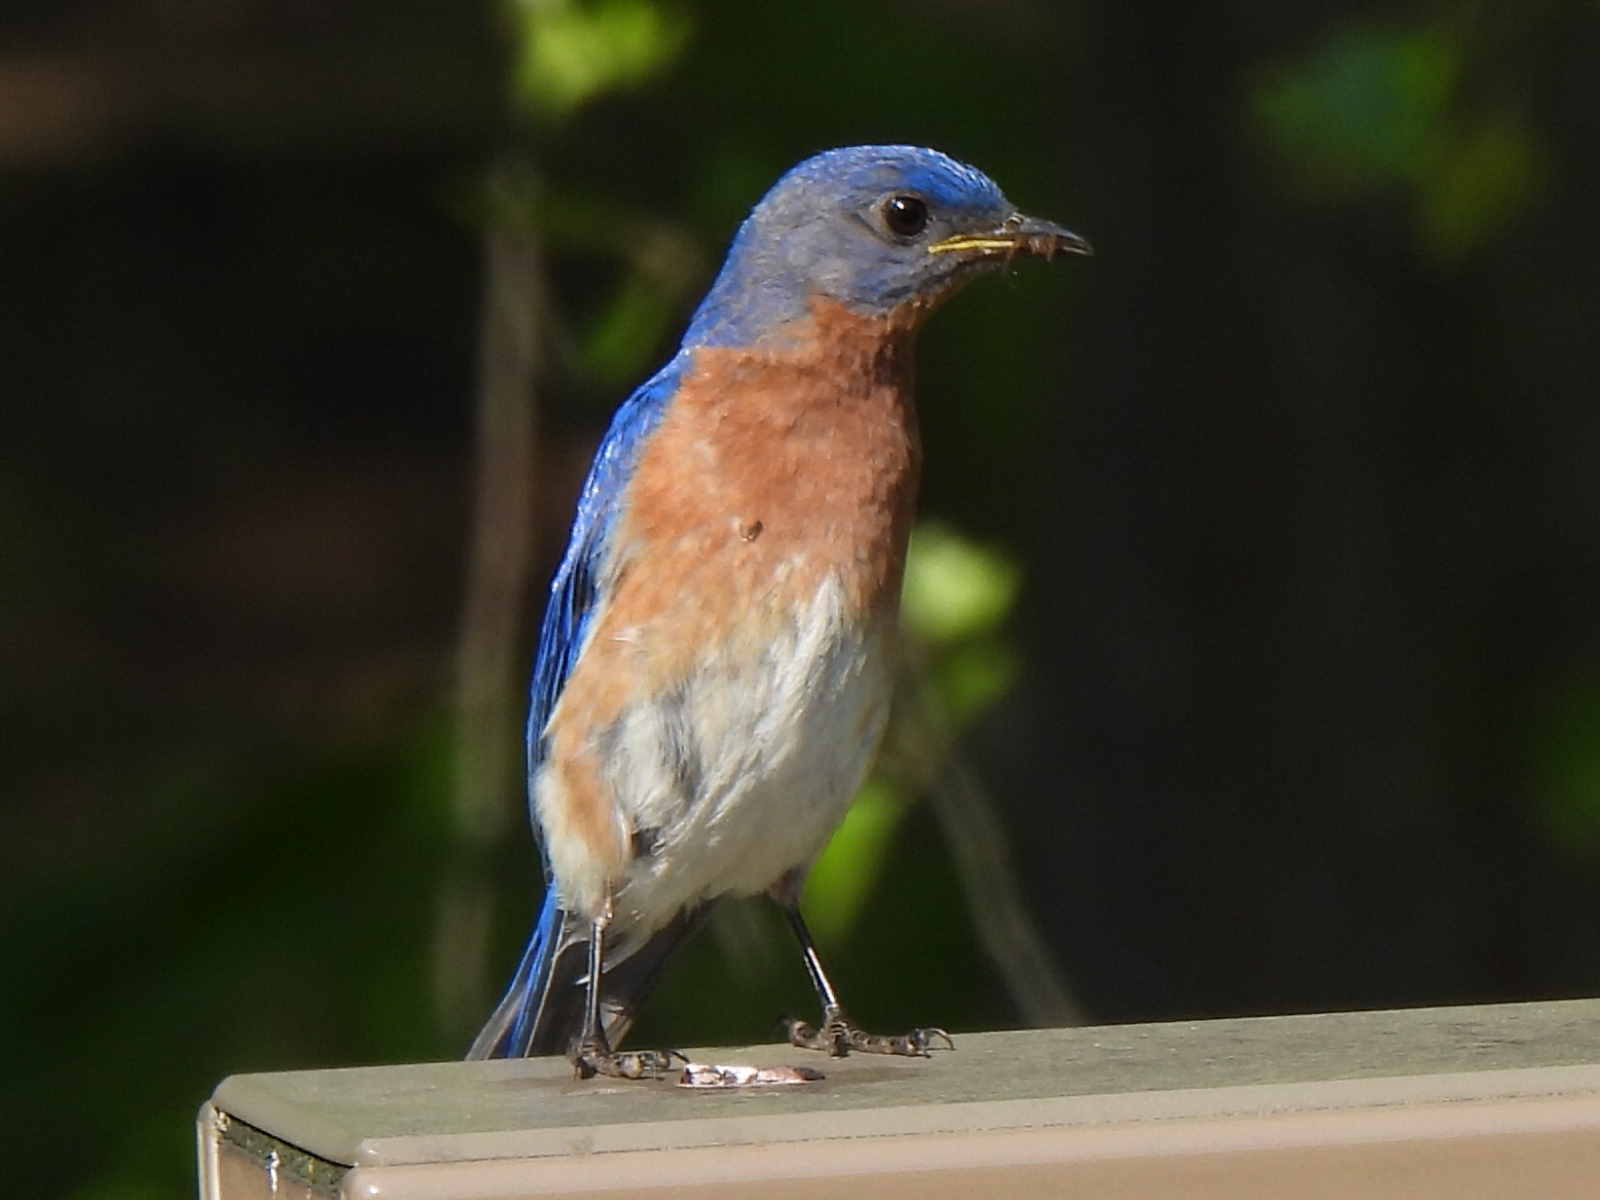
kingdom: Animalia
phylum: Chordata
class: Aves
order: Passeriformes
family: Turdidae
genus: Sialia
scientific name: Sialia sialis
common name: Eastern bluebird
